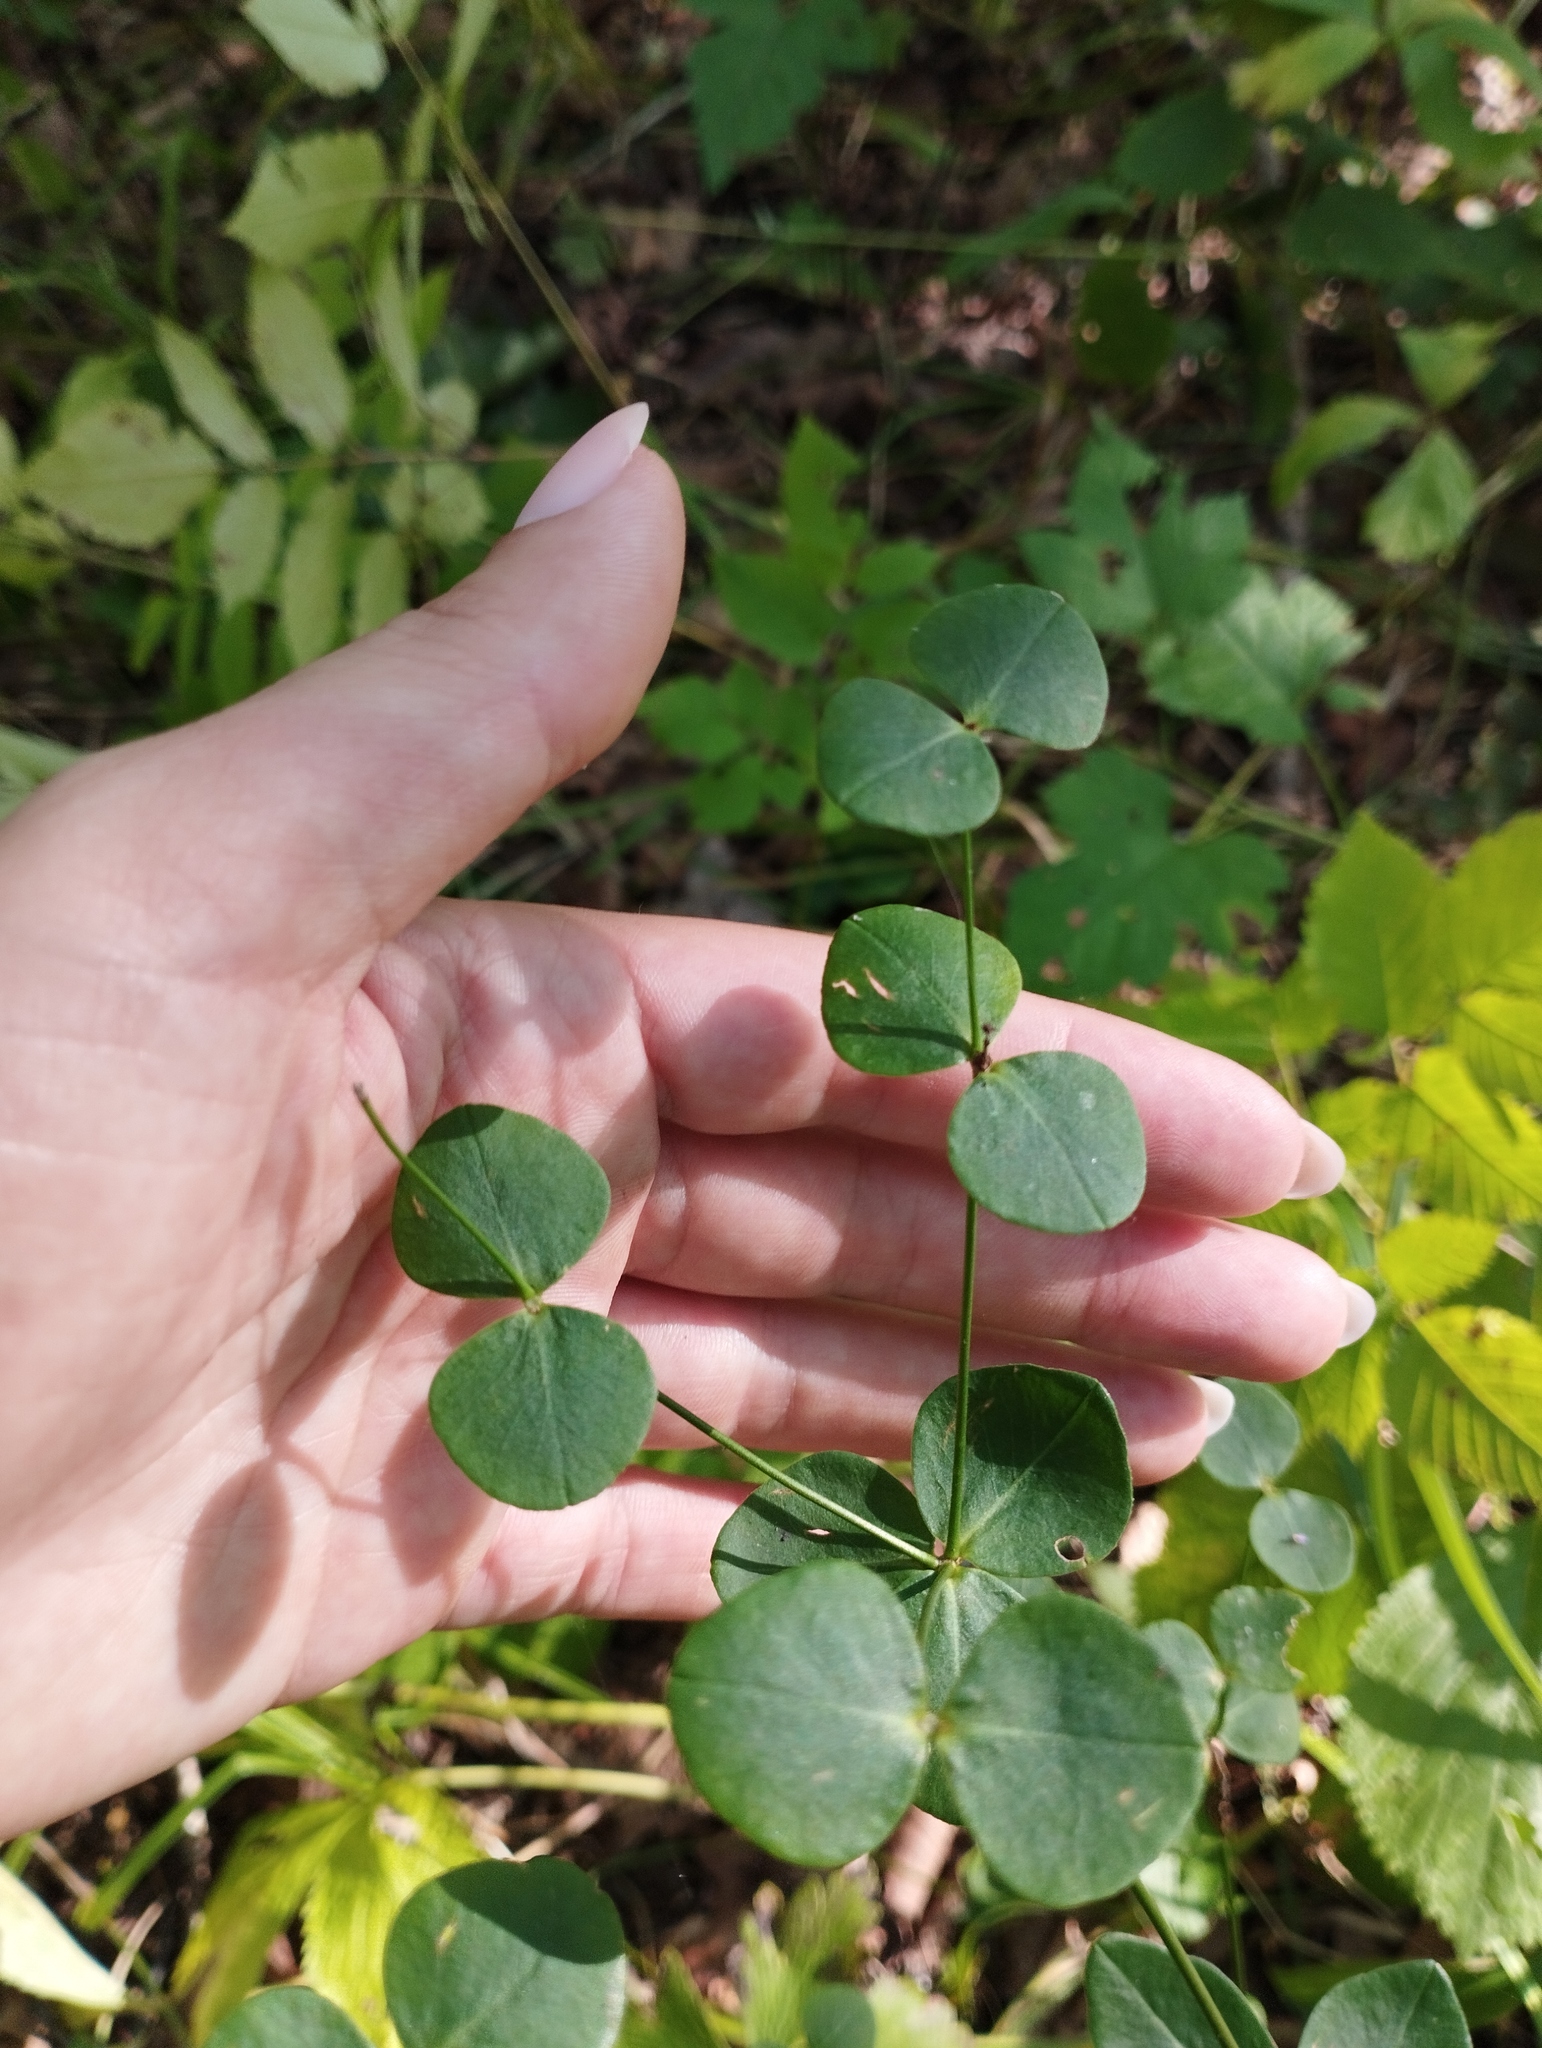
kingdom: Plantae
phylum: Tracheophyta
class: Magnoliopsida
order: Malpighiales
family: Euphorbiaceae
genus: Euphorbia
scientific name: Euphorbia lucorum
